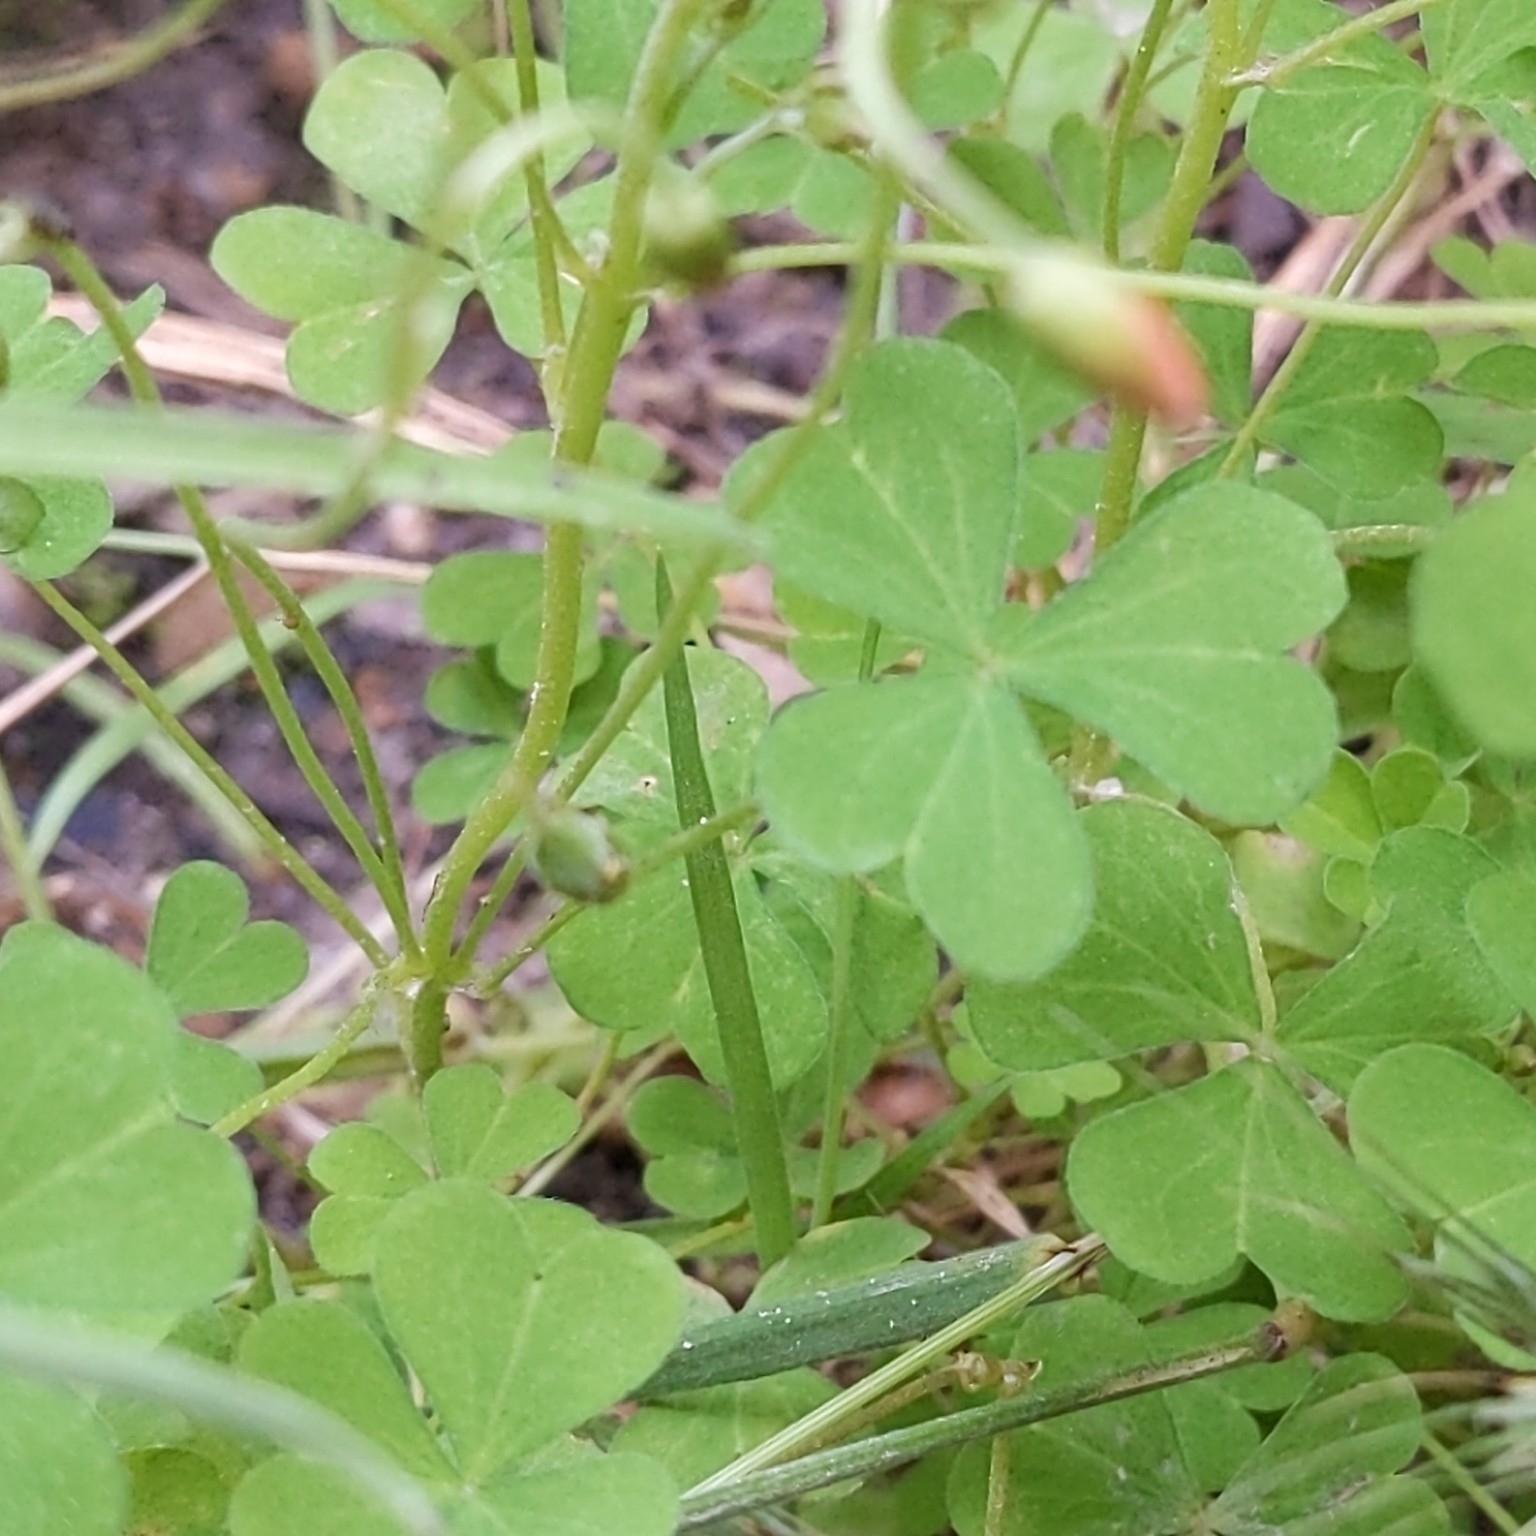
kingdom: Plantae
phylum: Tracheophyta
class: Magnoliopsida
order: Oxalidales
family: Oxalidaceae
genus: Oxalis
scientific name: Oxalis californica
